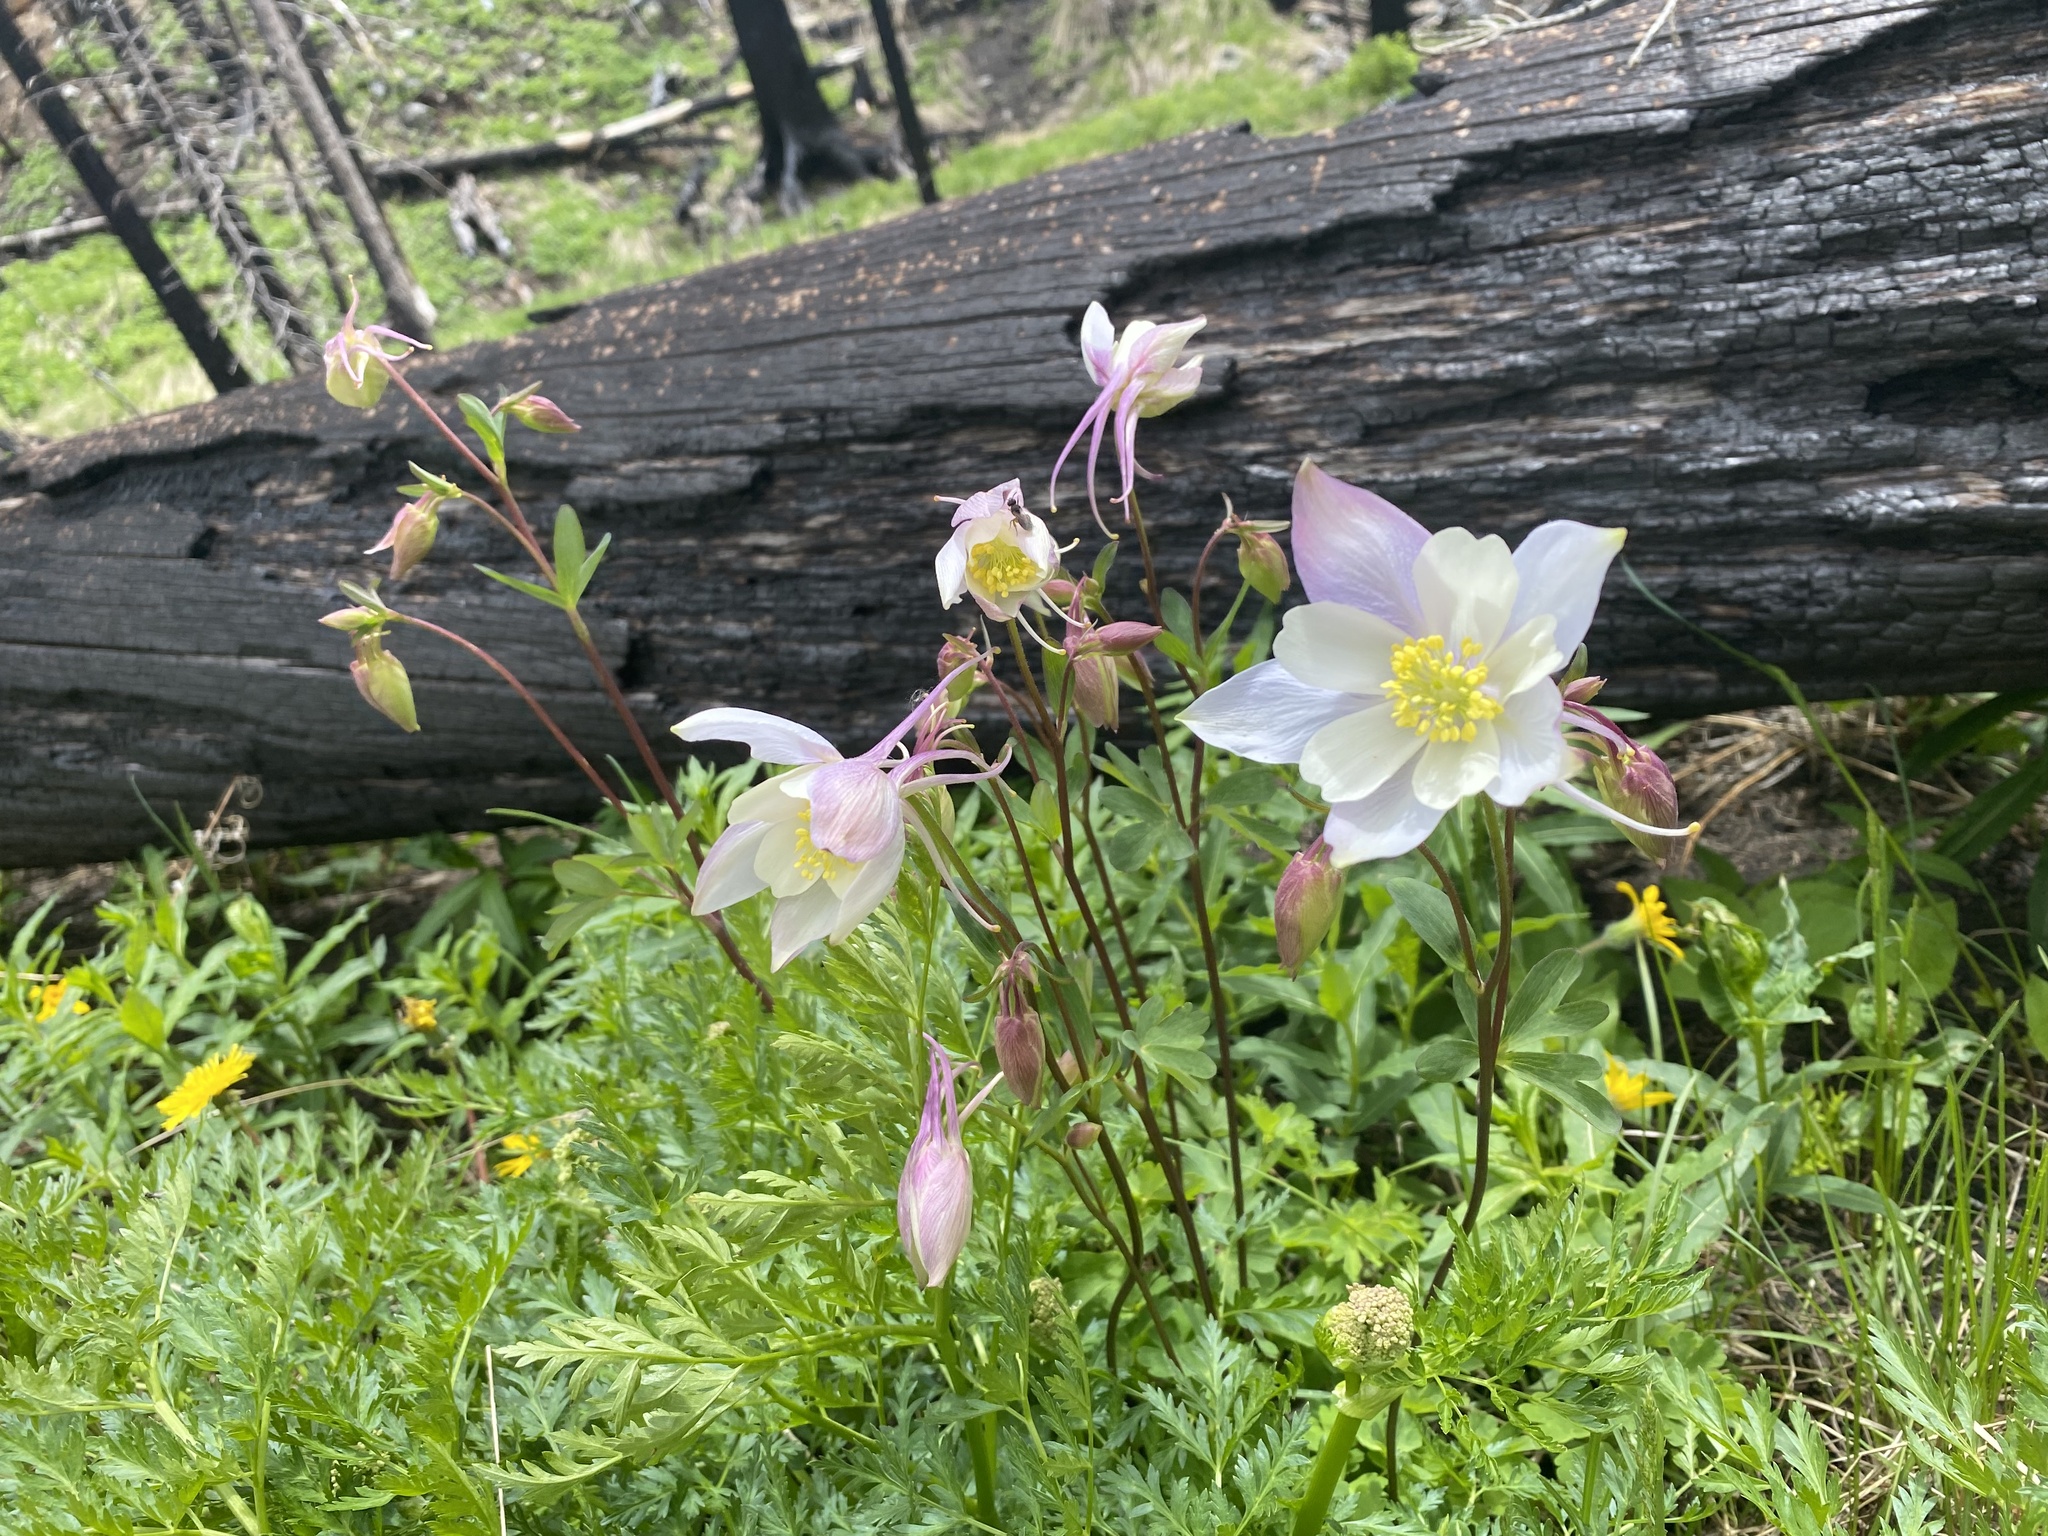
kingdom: Plantae
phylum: Tracheophyta
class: Magnoliopsida
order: Ranunculales
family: Ranunculaceae
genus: Aquilegia
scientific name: Aquilegia coerulea
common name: Rocky mountain columbine
